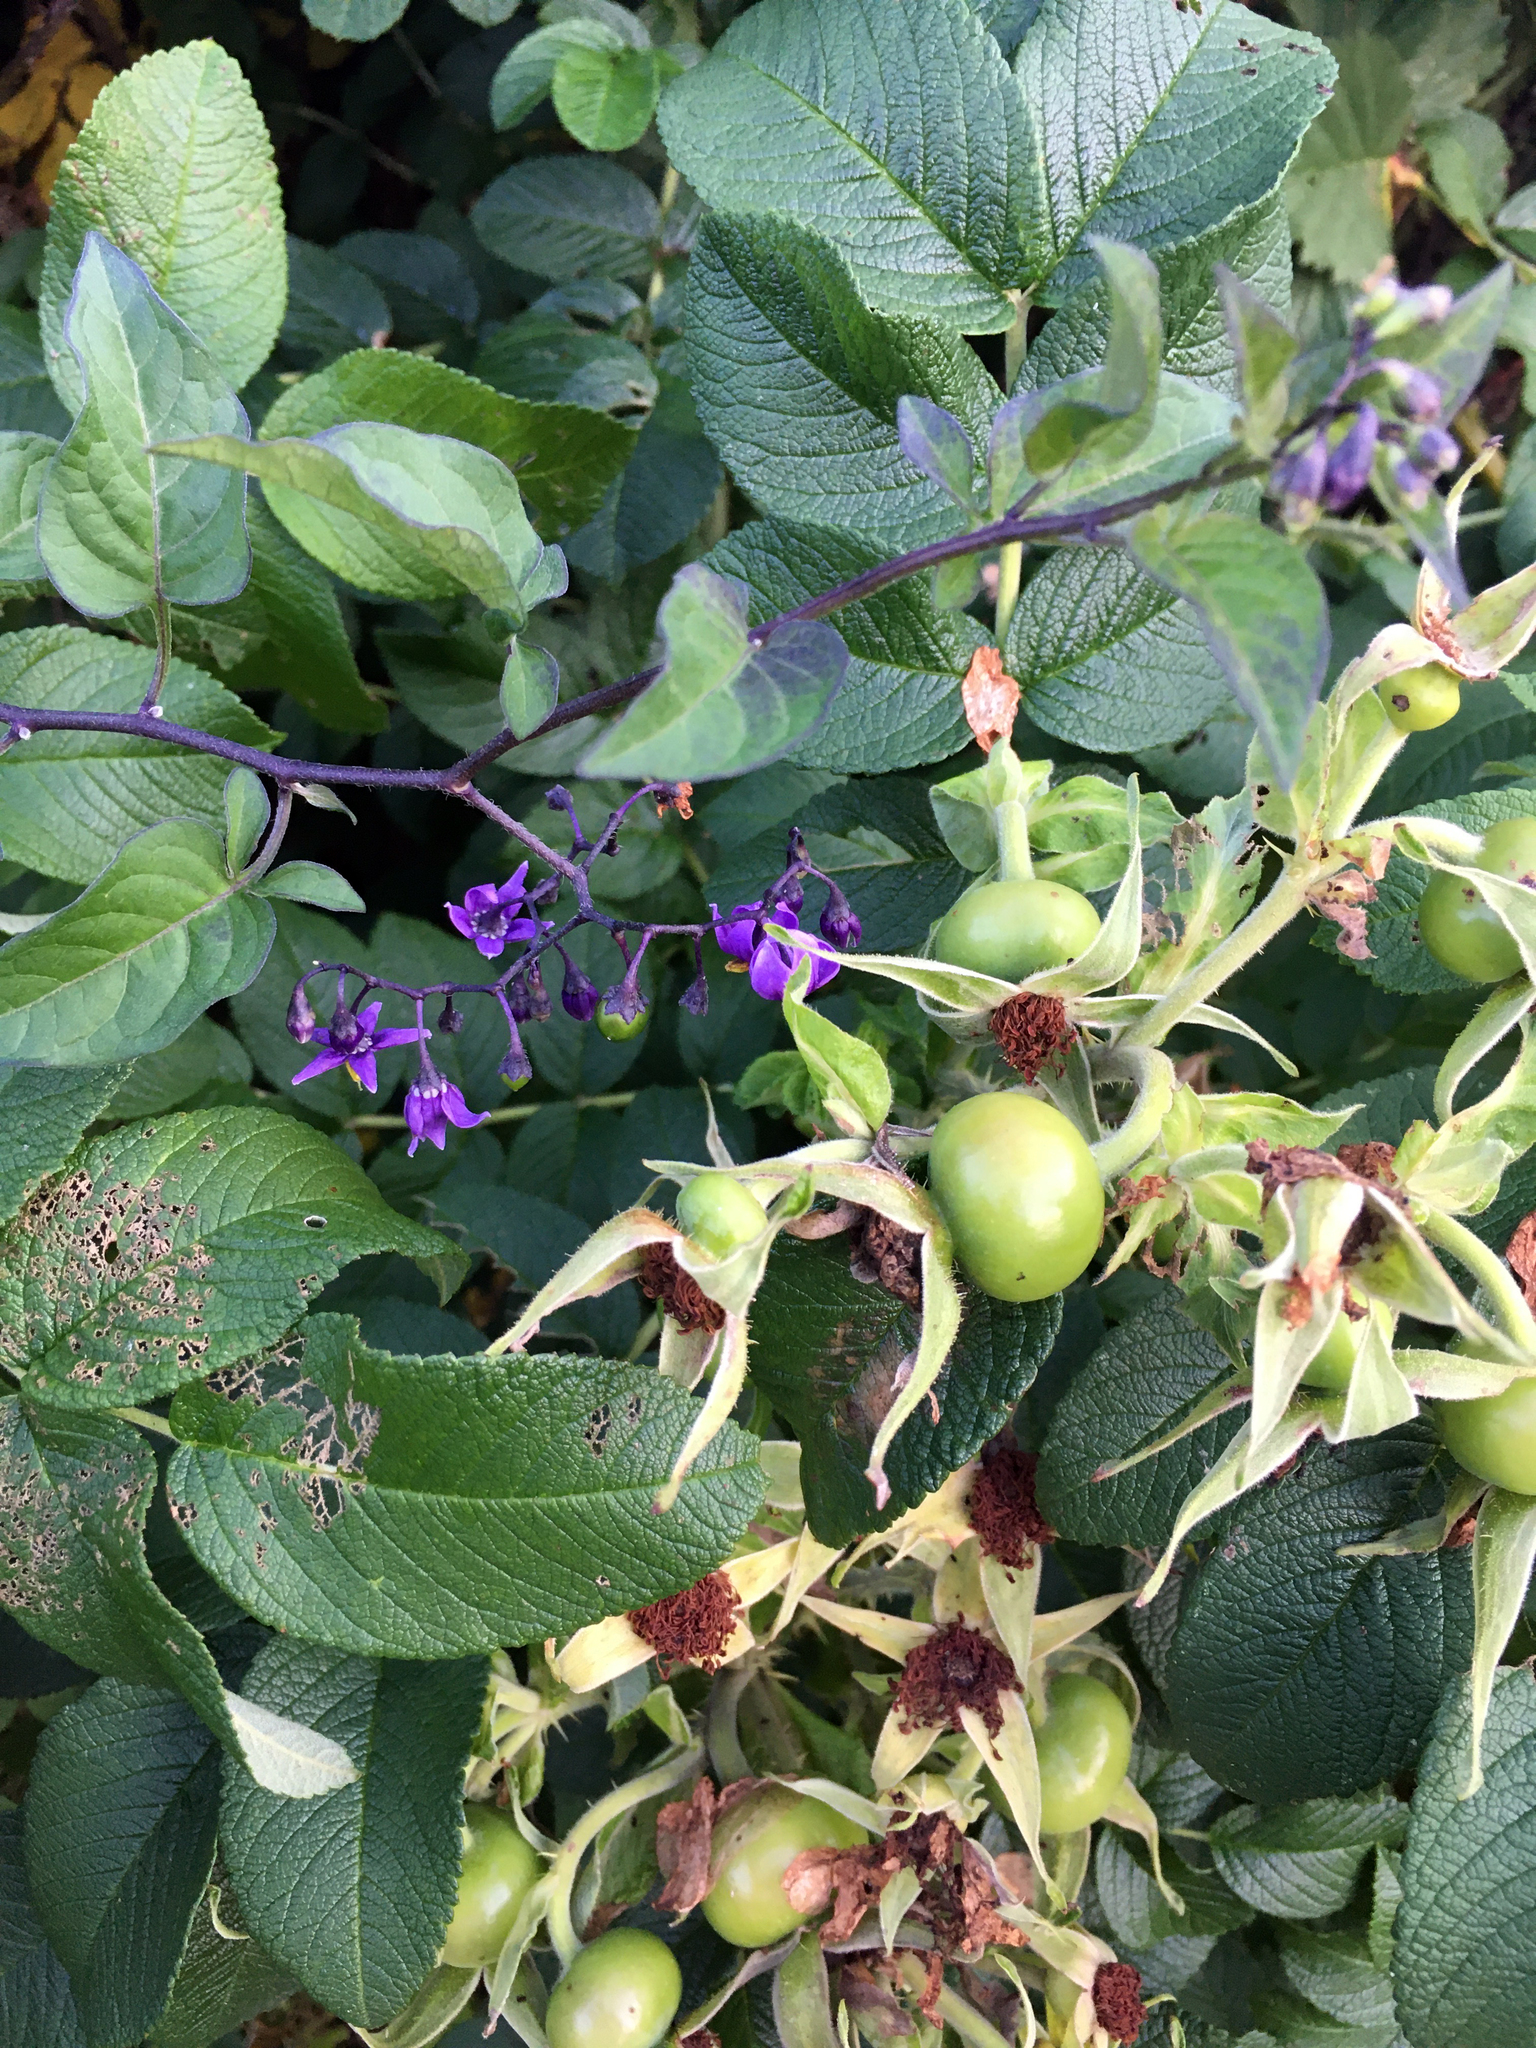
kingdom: Plantae
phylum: Tracheophyta
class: Magnoliopsida
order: Solanales
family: Solanaceae
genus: Solanum
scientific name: Solanum dulcamara
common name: Climbing nightshade
